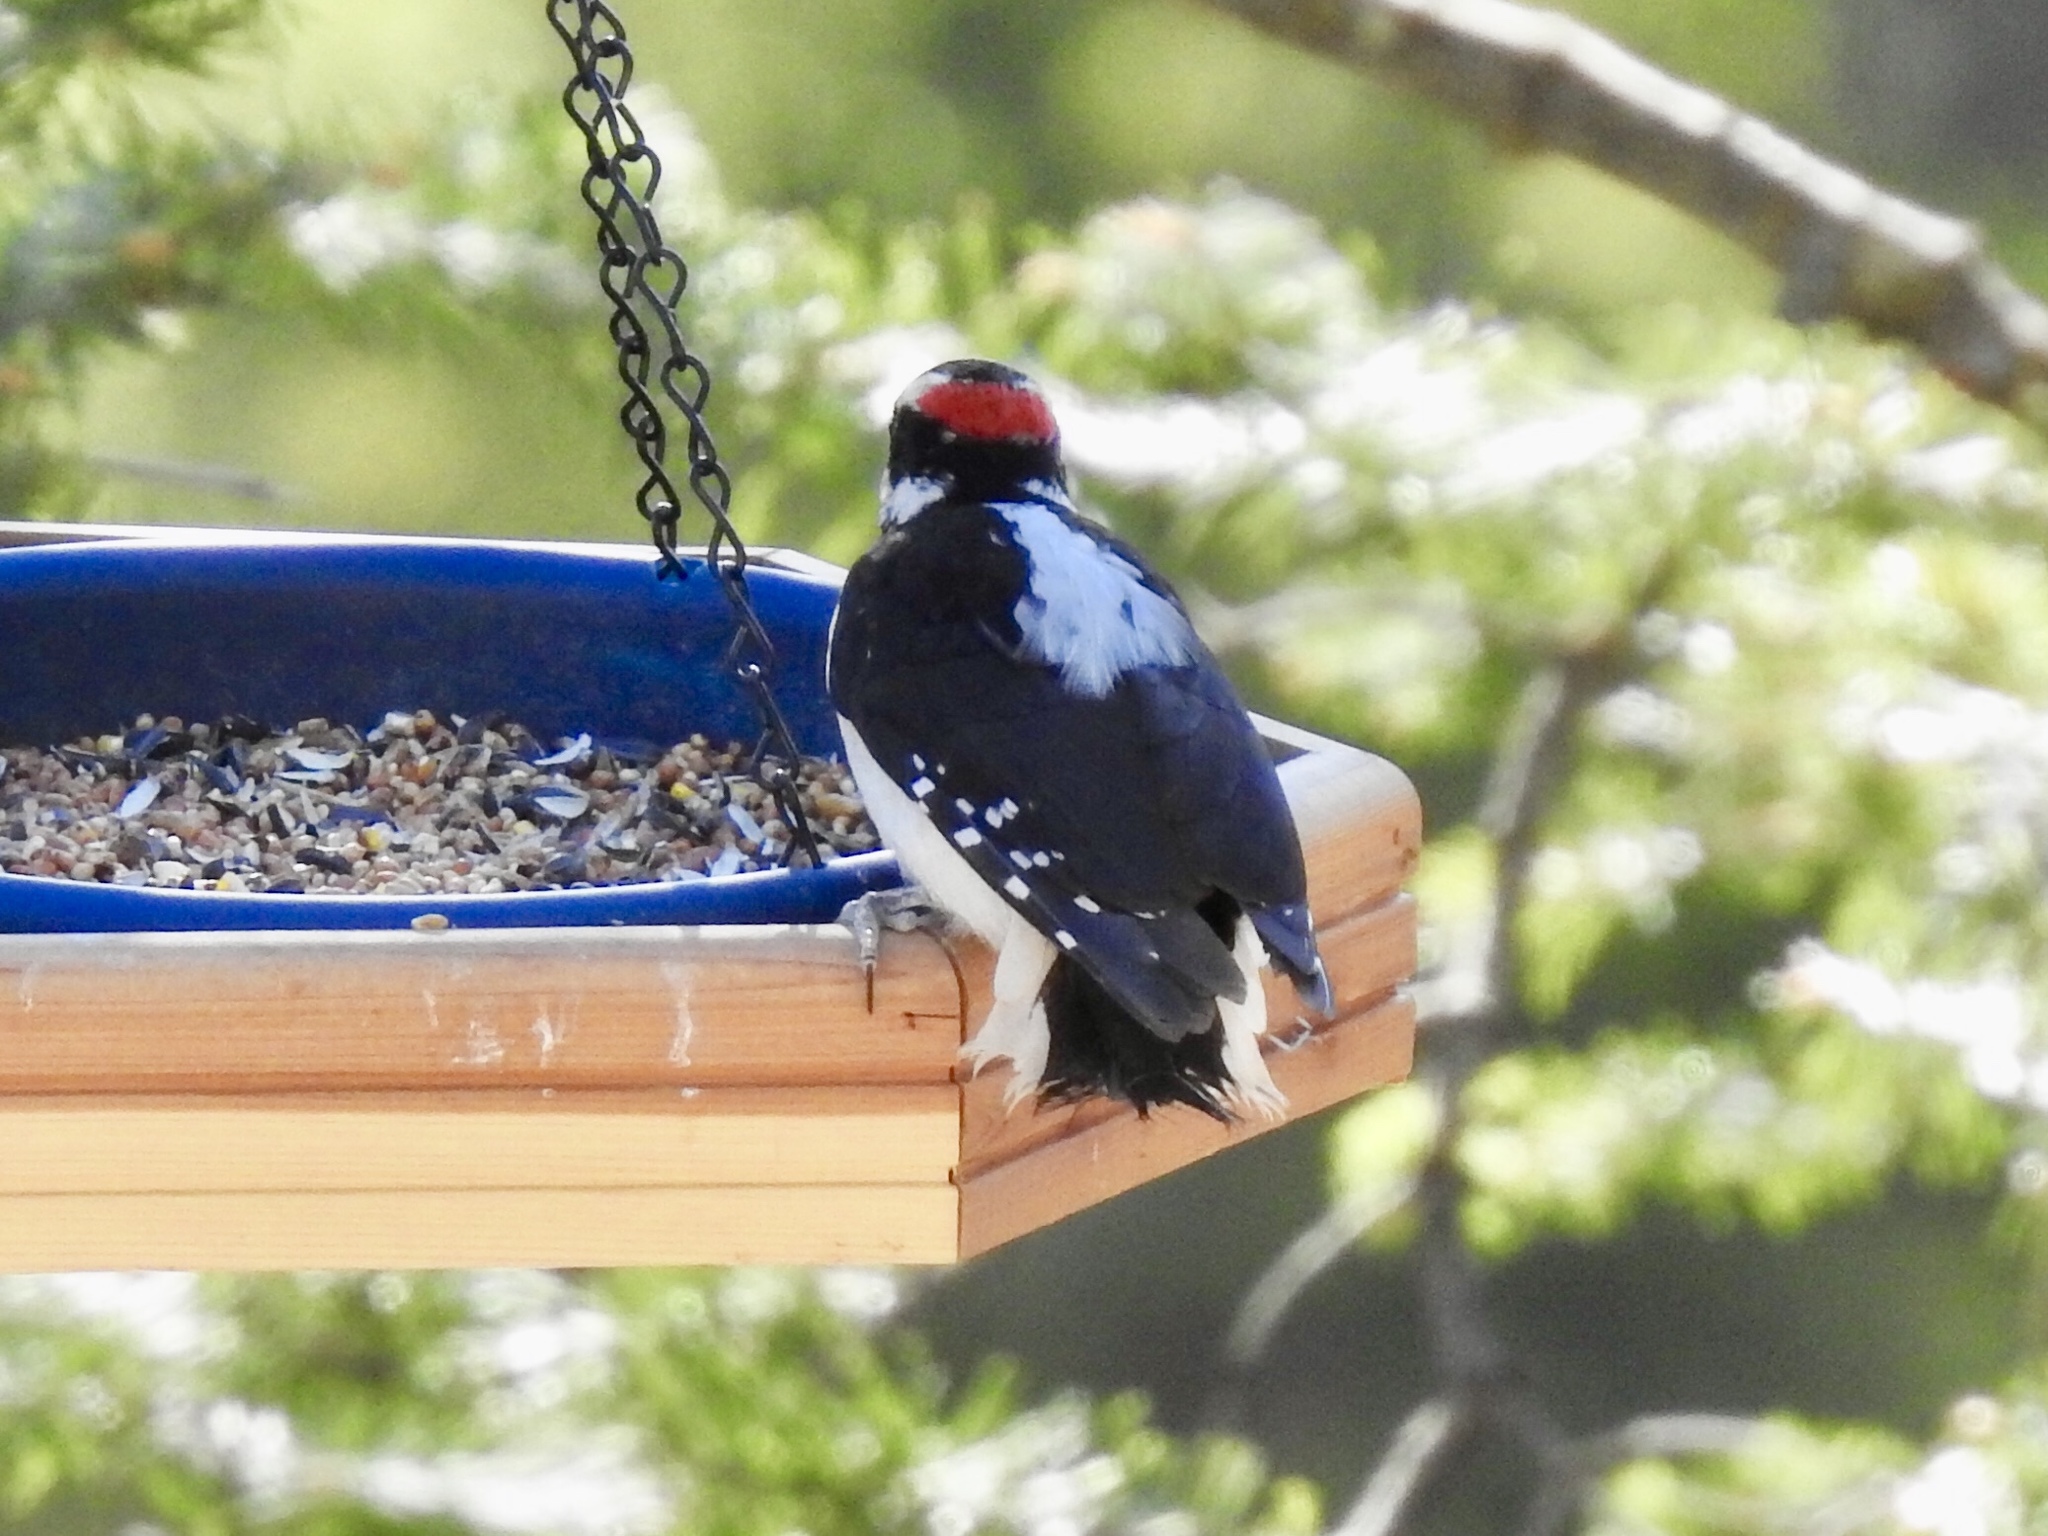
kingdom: Animalia
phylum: Chordata
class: Aves
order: Piciformes
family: Picidae
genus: Leuconotopicus
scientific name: Leuconotopicus villosus
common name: Hairy woodpecker
